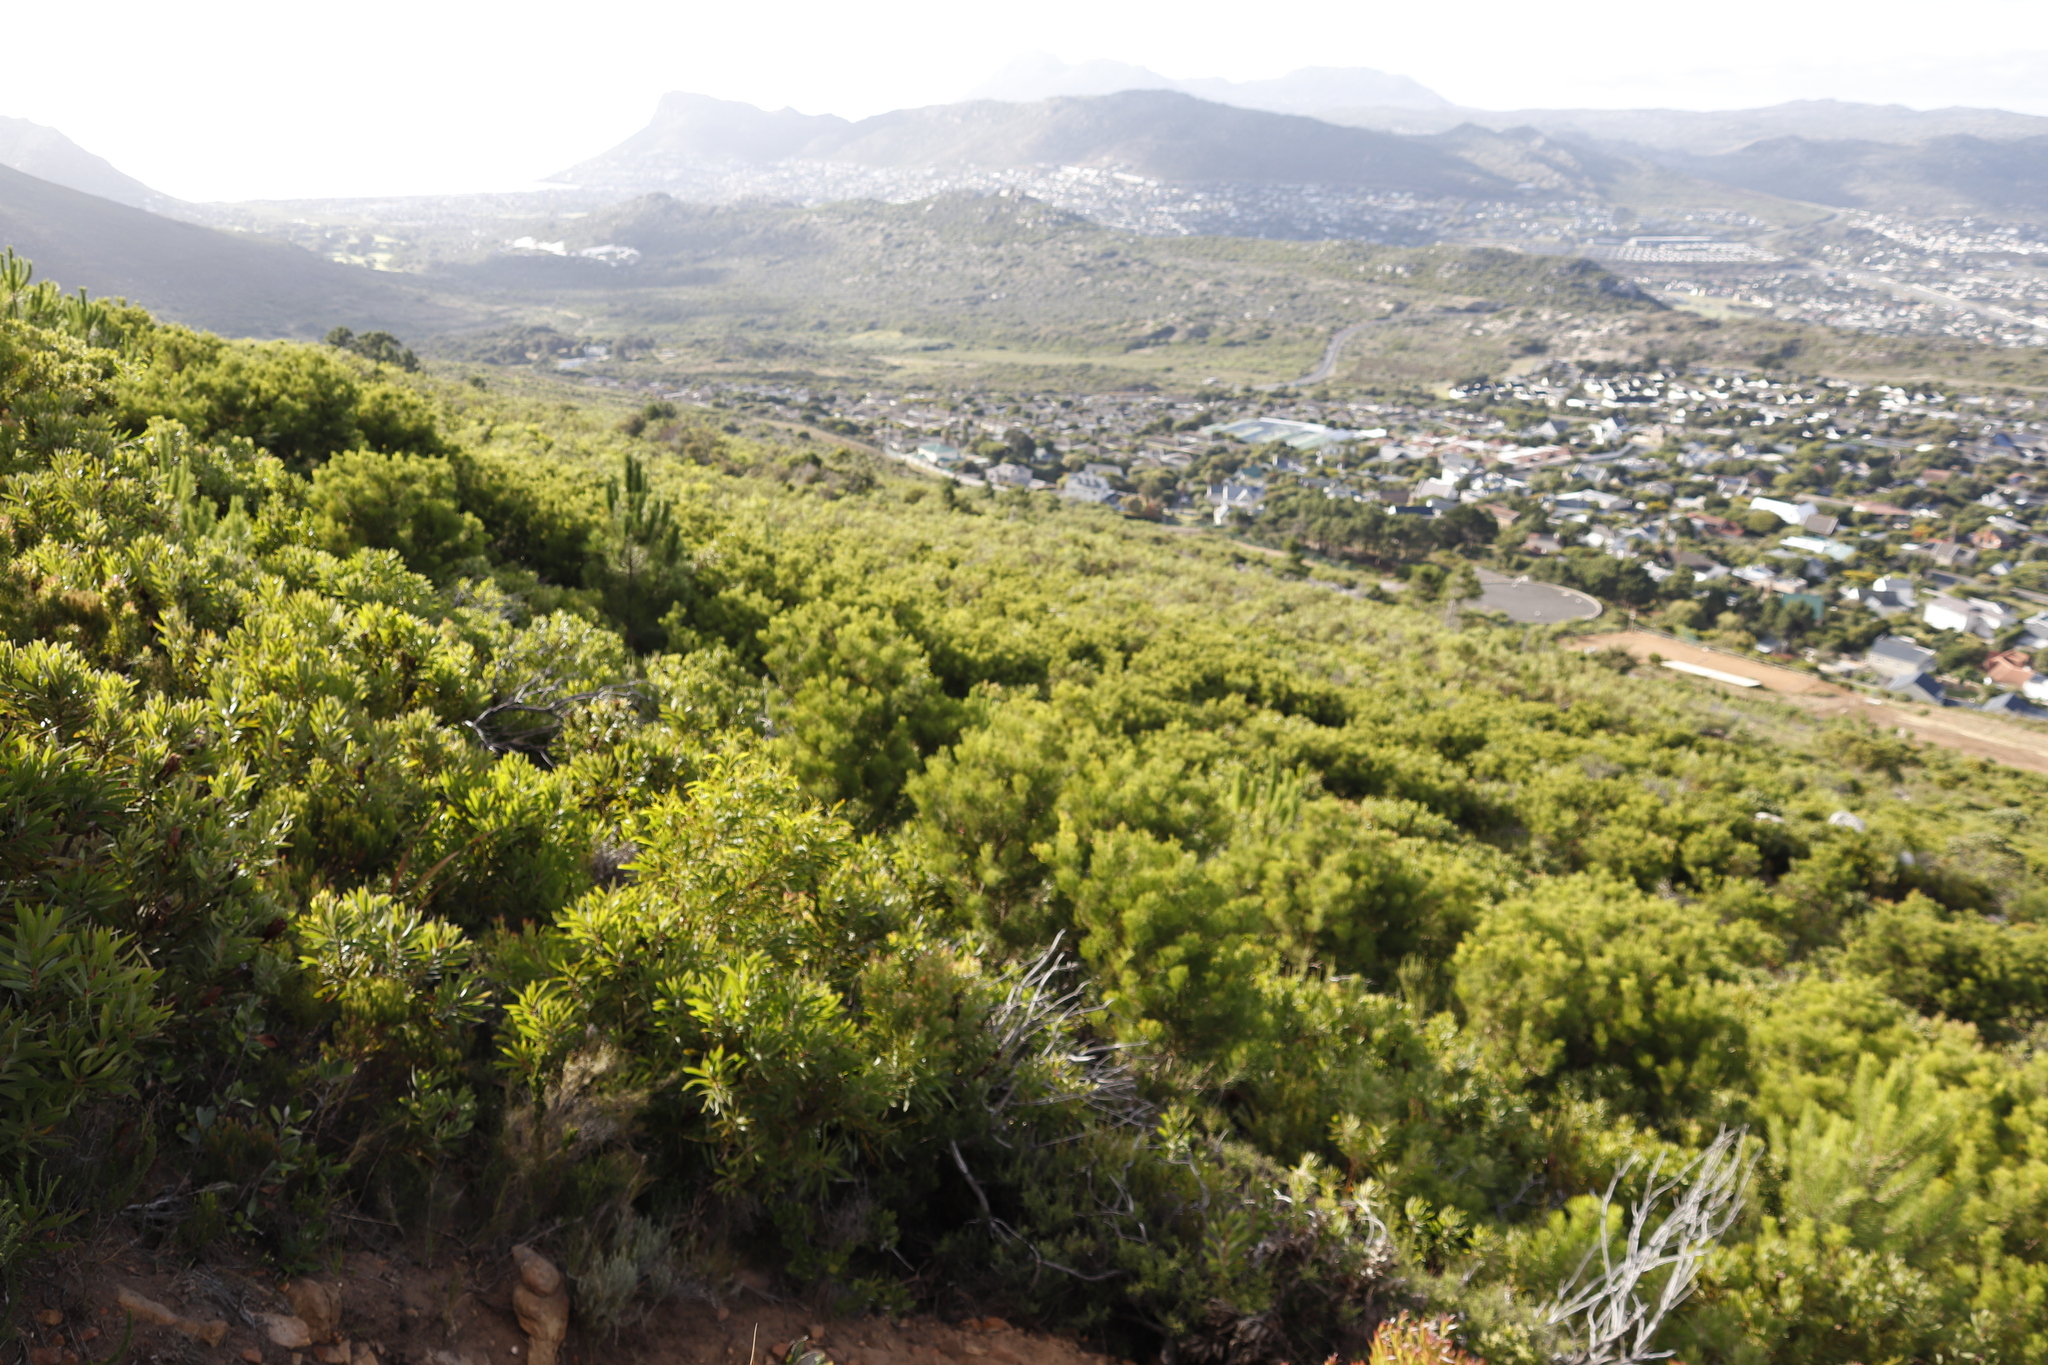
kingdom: Plantae
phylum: Tracheophyta
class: Magnoliopsida
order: Proteales
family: Proteaceae
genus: Hakea
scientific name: Hakea drupacea
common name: Sweet hakea
